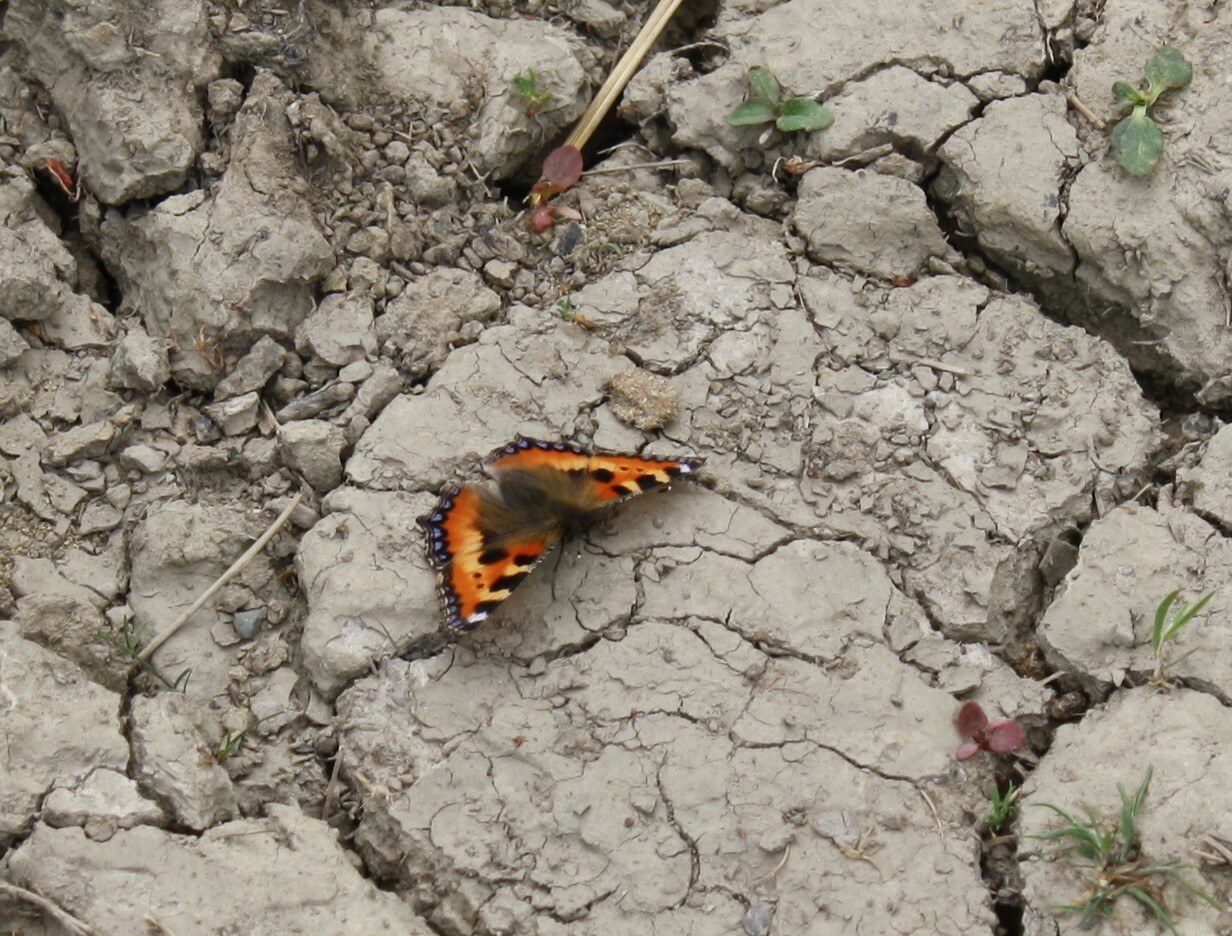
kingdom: Animalia
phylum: Arthropoda
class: Insecta
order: Lepidoptera
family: Nymphalidae
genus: Aglais
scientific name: Aglais urticae
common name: Small tortoiseshell
